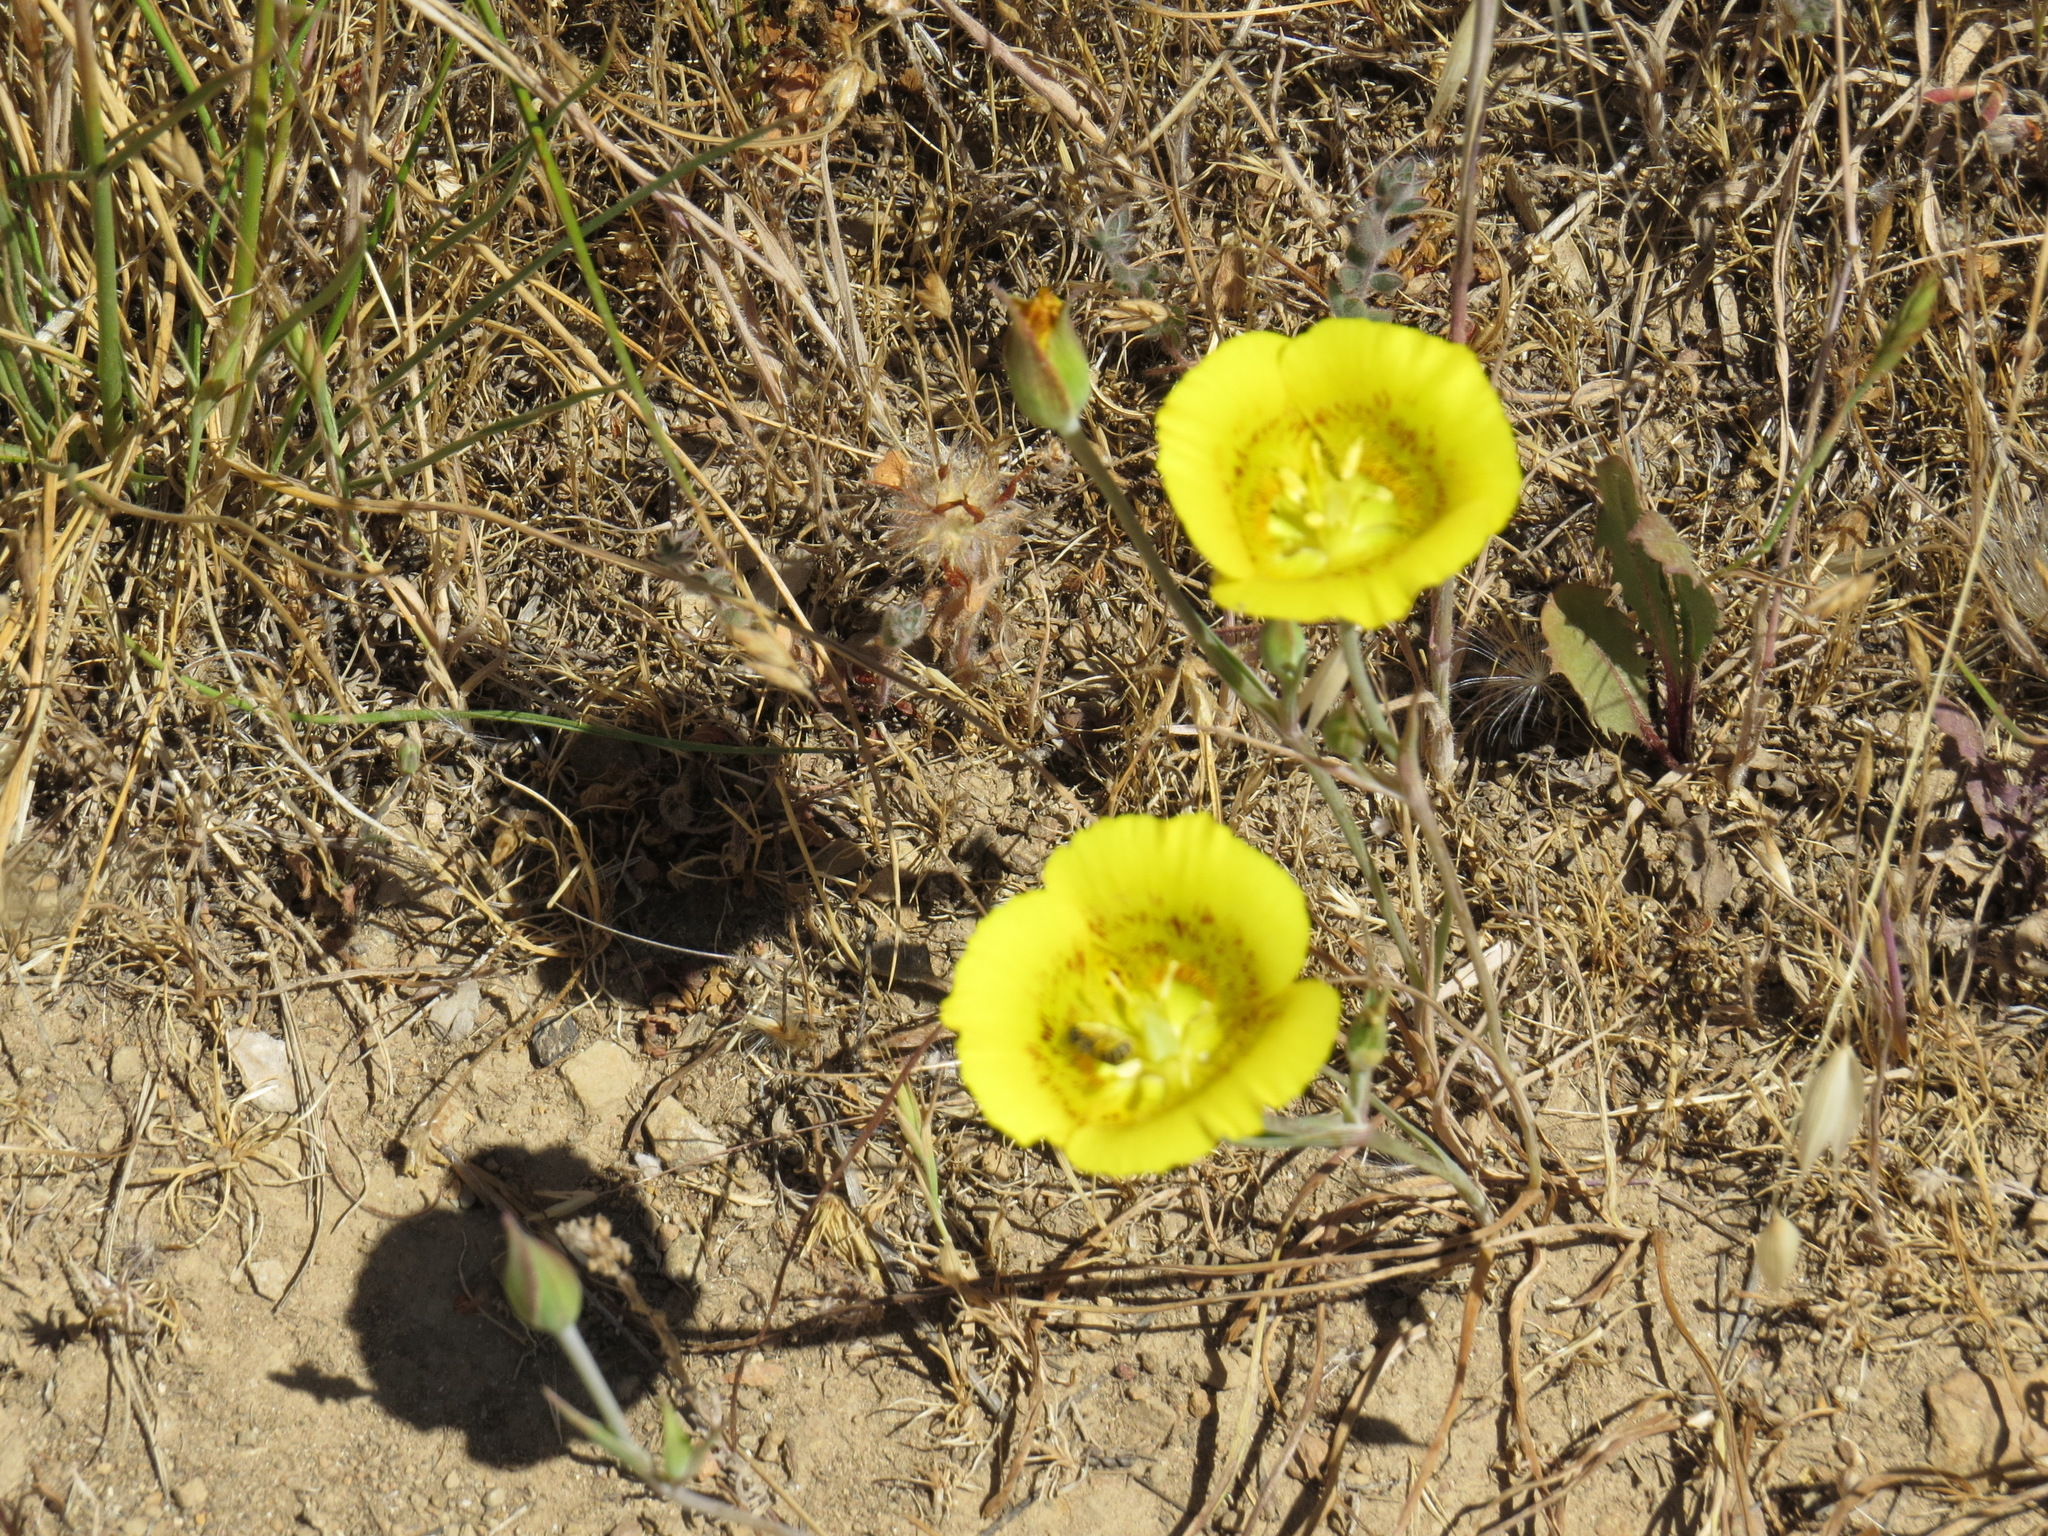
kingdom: Plantae
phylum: Tracheophyta
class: Liliopsida
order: Liliales
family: Liliaceae
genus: Calochortus
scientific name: Calochortus luteus
